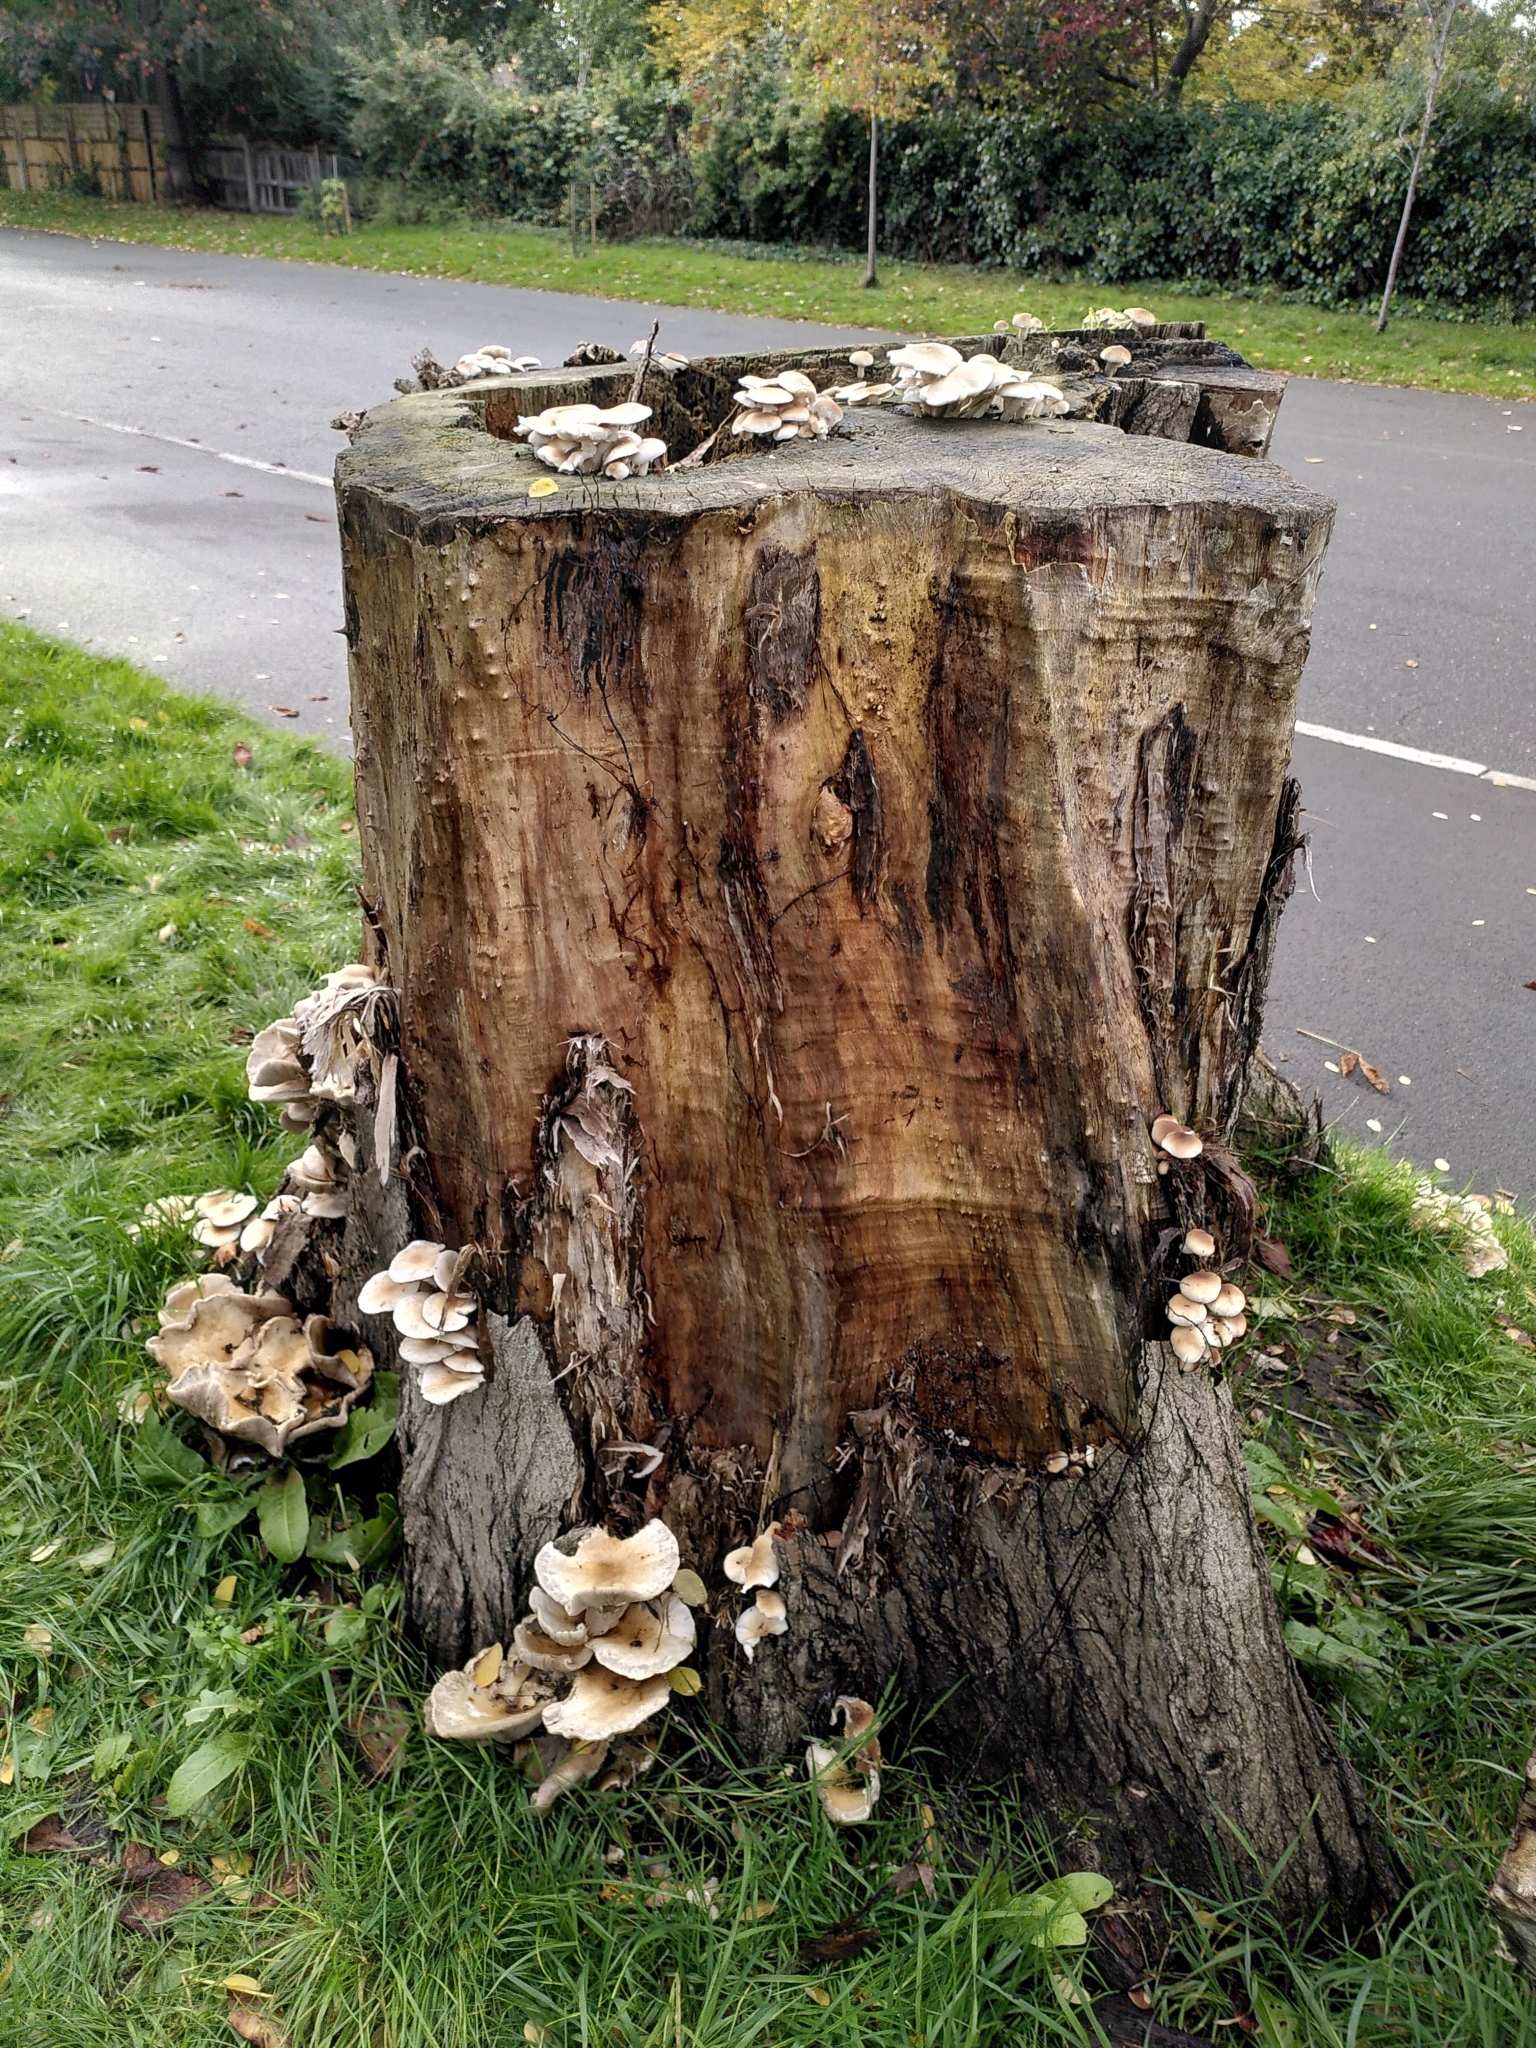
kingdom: Fungi
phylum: Basidiomycota
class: Agaricomycetes
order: Agaricales
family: Tubariaceae
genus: Cyclocybe
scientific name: Cyclocybe cylindracea
